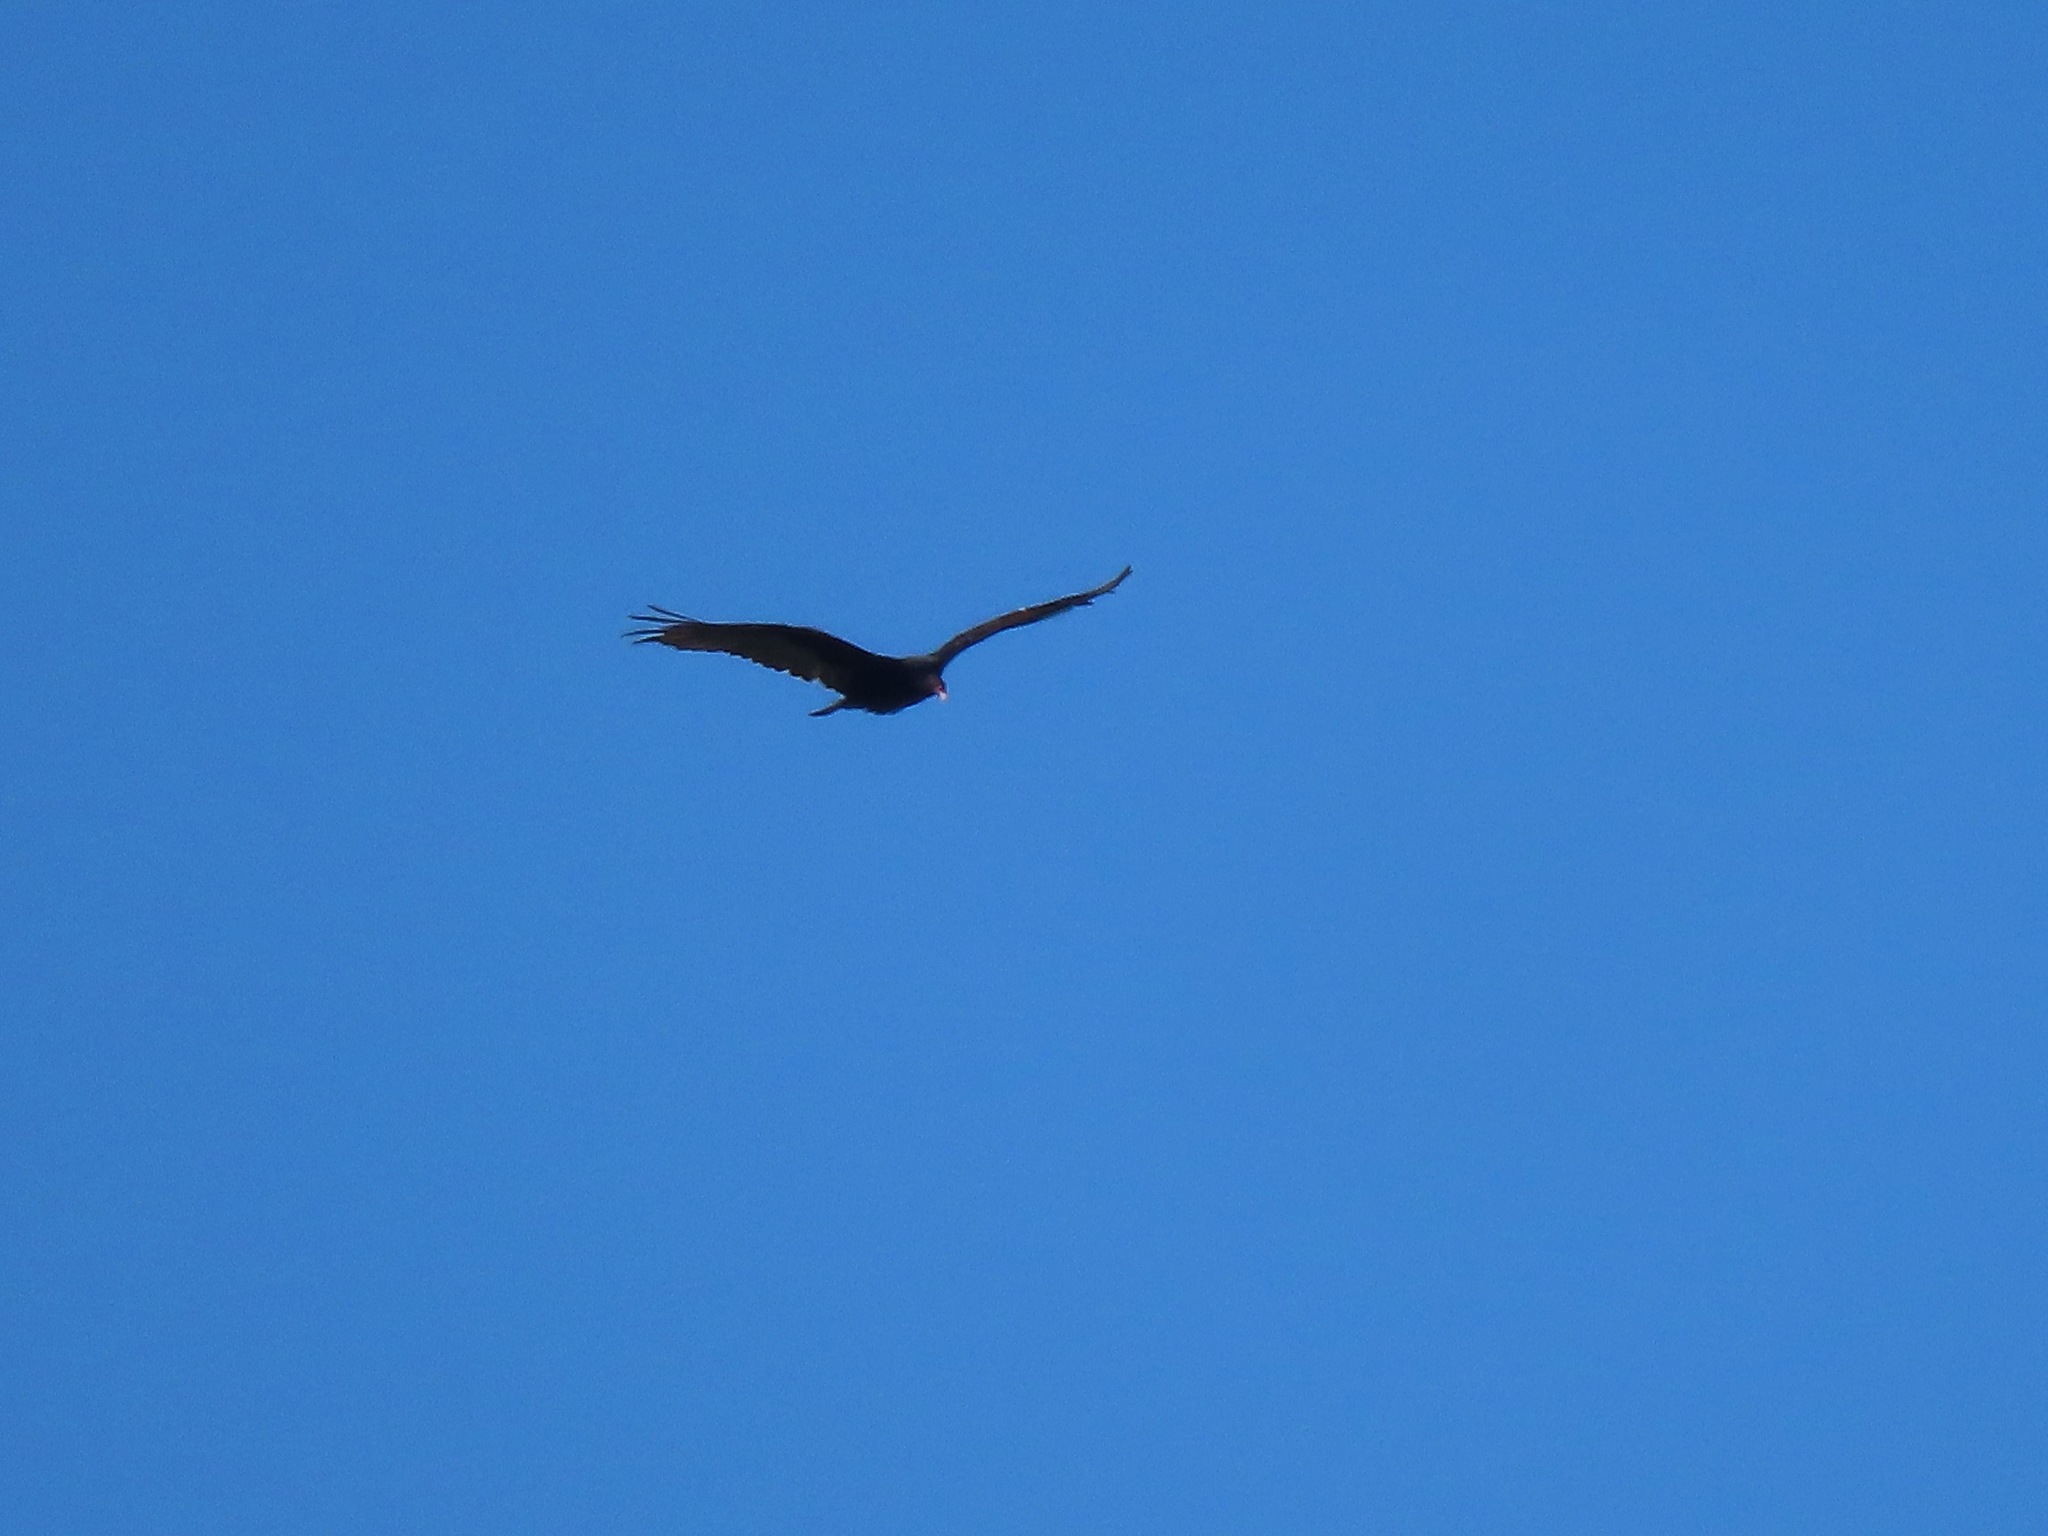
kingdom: Animalia
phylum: Chordata
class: Aves
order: Accipitriformes
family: Cathartidae
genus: Cathartes
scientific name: Cathartes aura
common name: Turkey vulture
